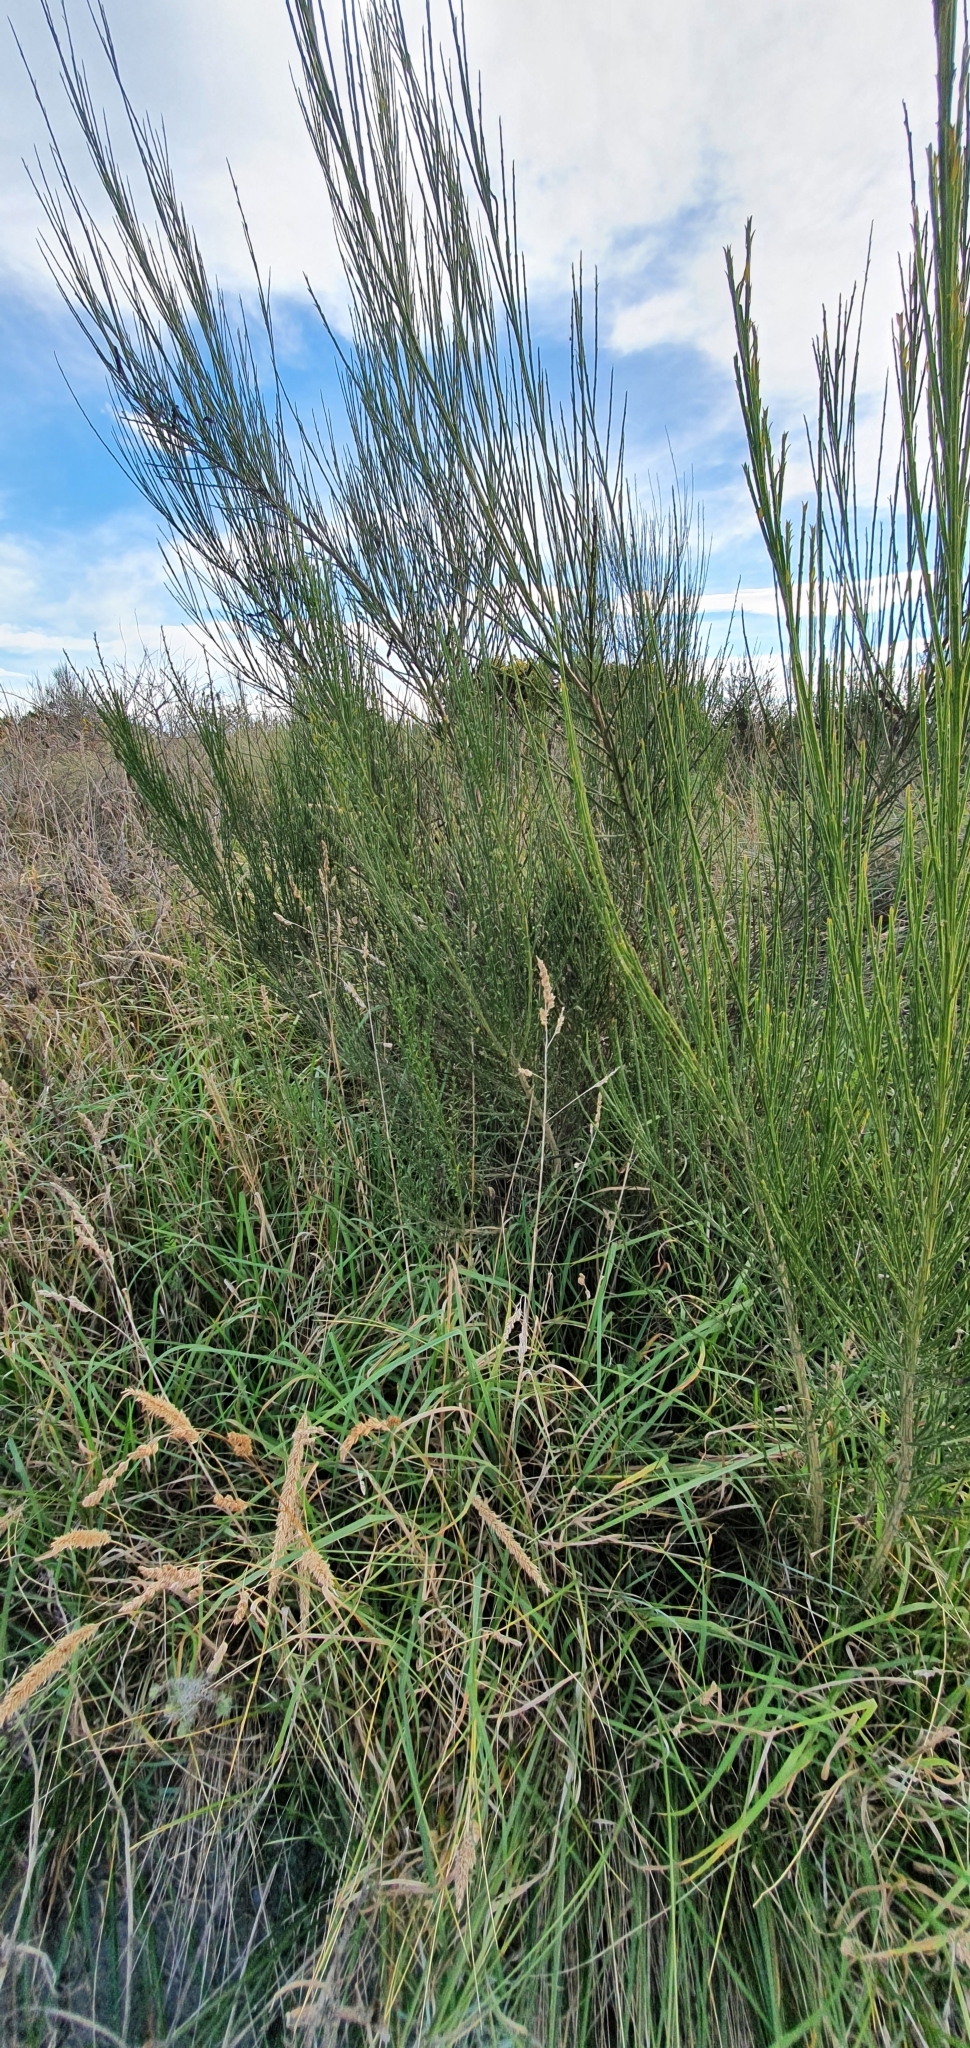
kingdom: Plantae
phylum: Tracheophyta
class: Magnoliopsida
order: Fabales
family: Fabaceae
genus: Cytisus
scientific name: Cytisus scoparius
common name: Scotch broom
